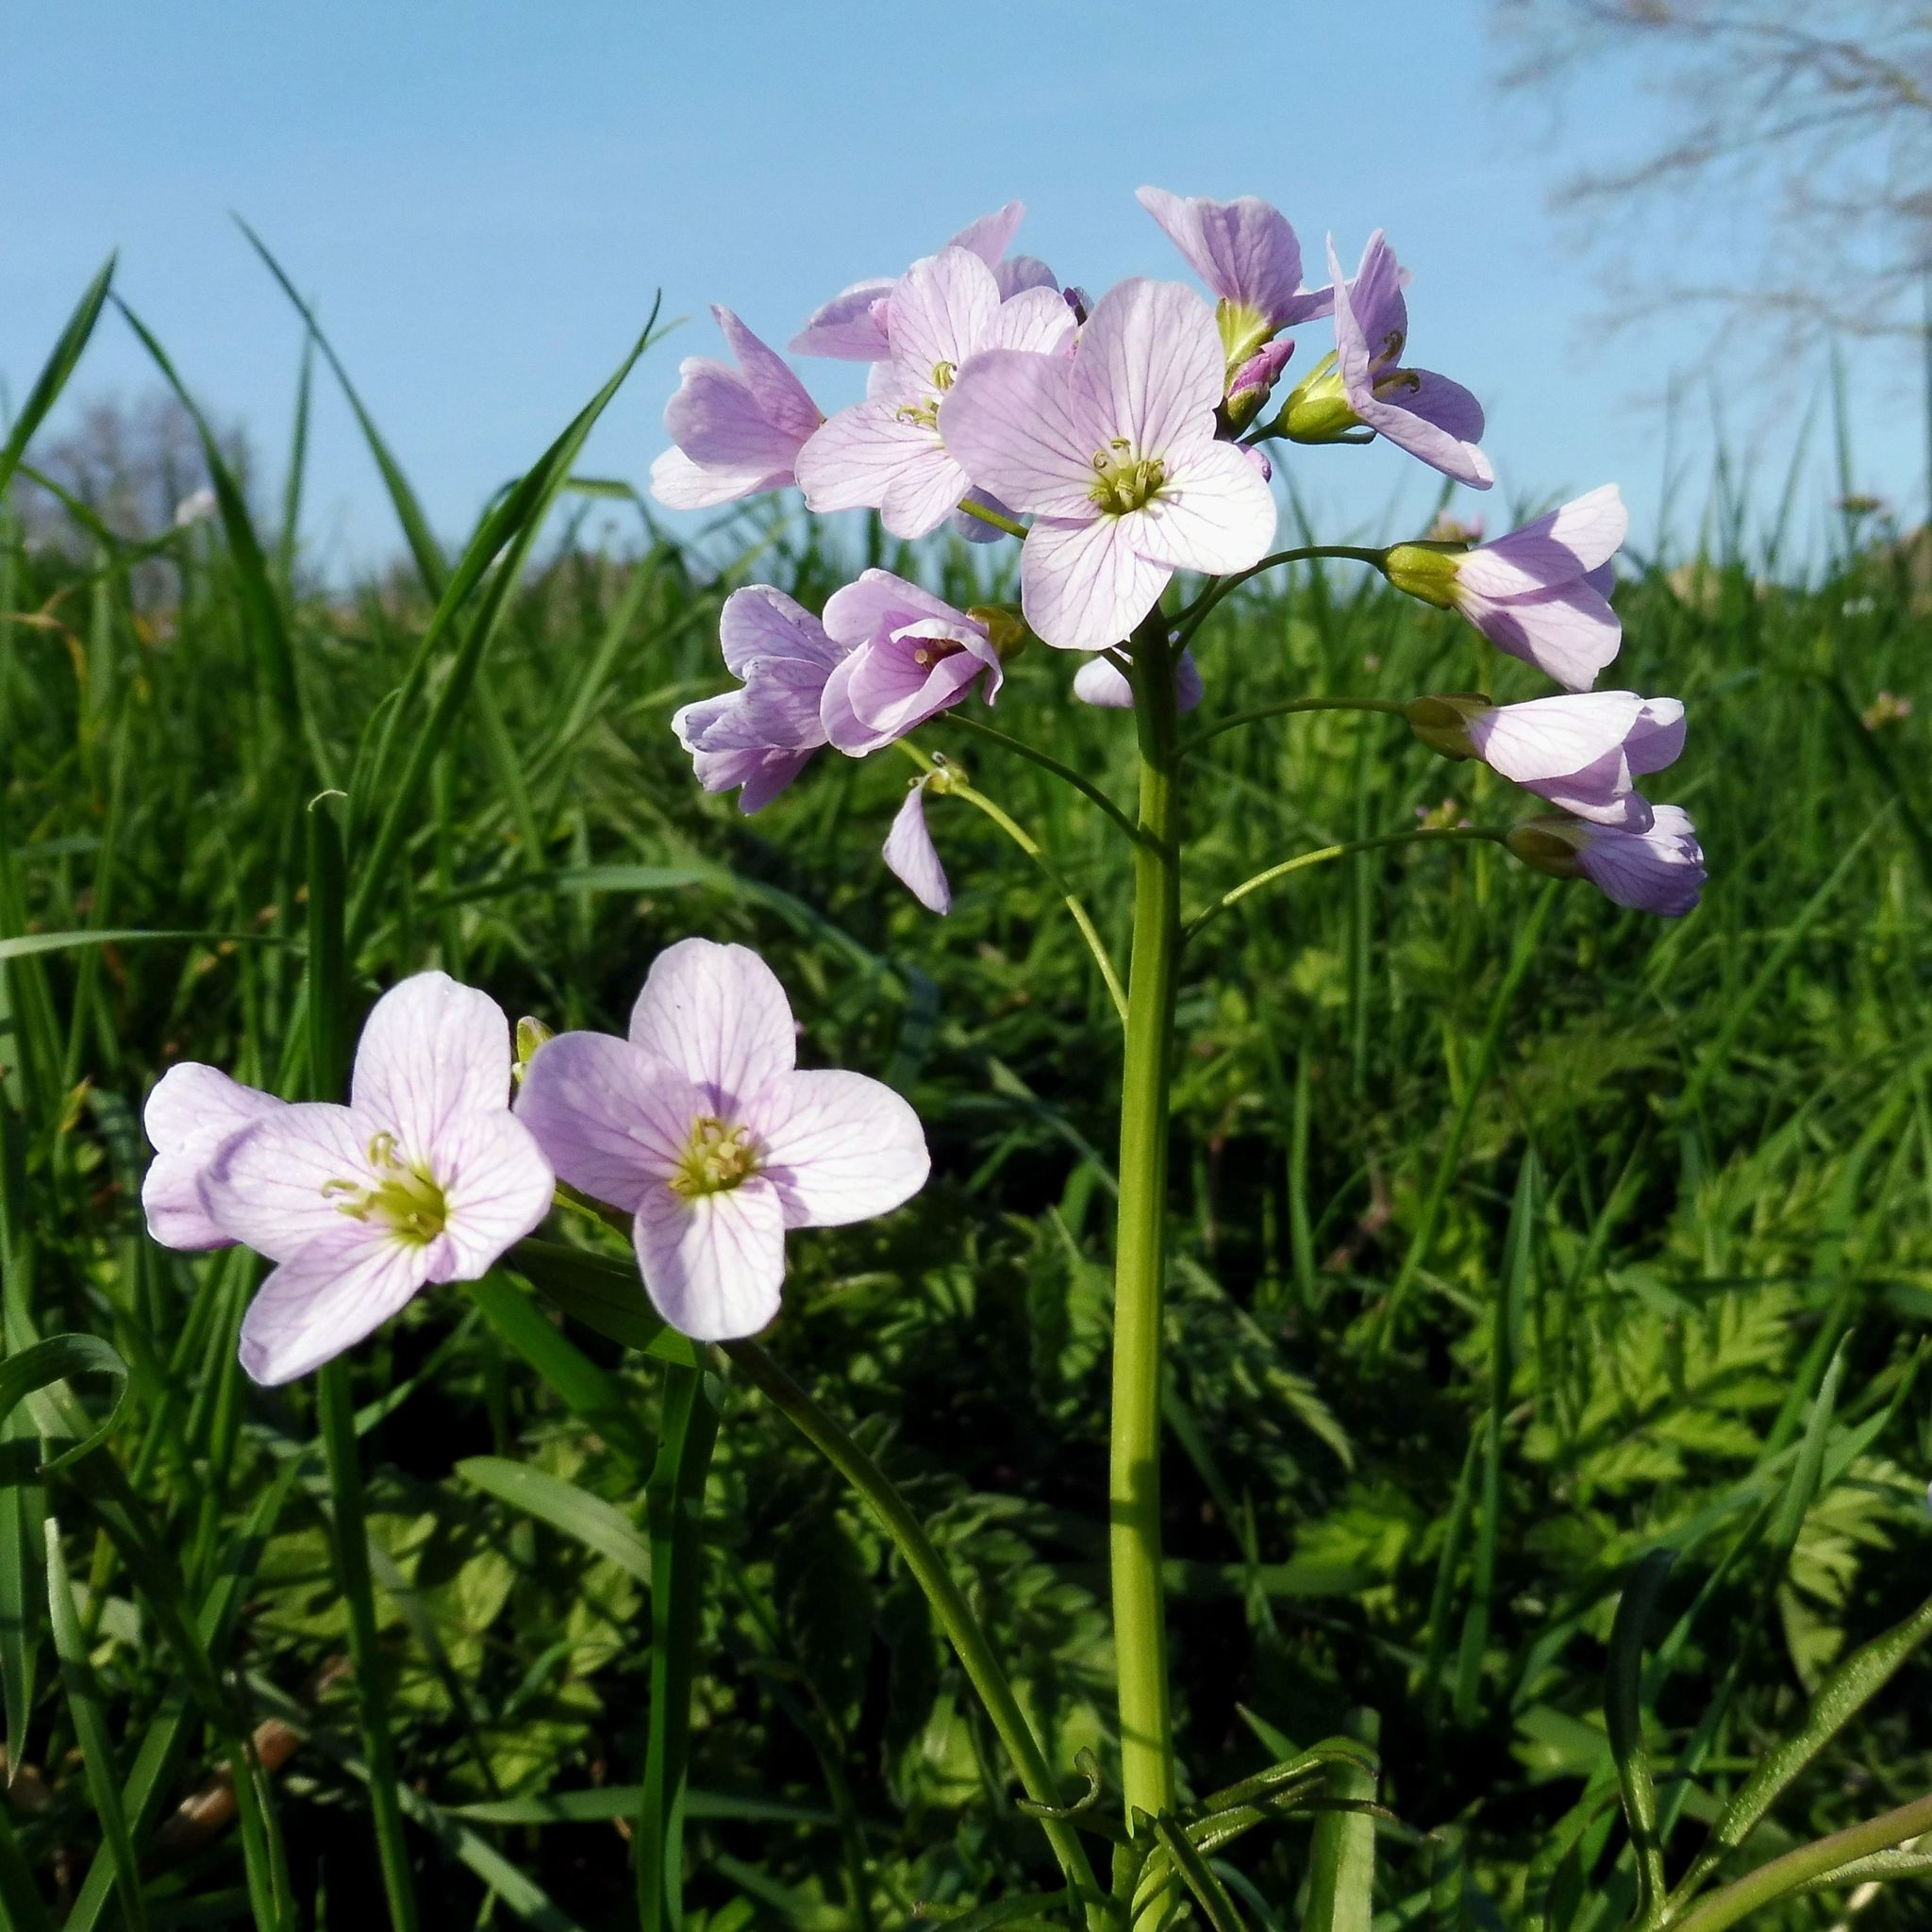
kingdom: Plantae
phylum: Tracheophyta
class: Magnoliopsida
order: Brassicales
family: Brassicaceae
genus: Cardamine
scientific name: Cardamine pratensis
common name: Cuckoo flower
